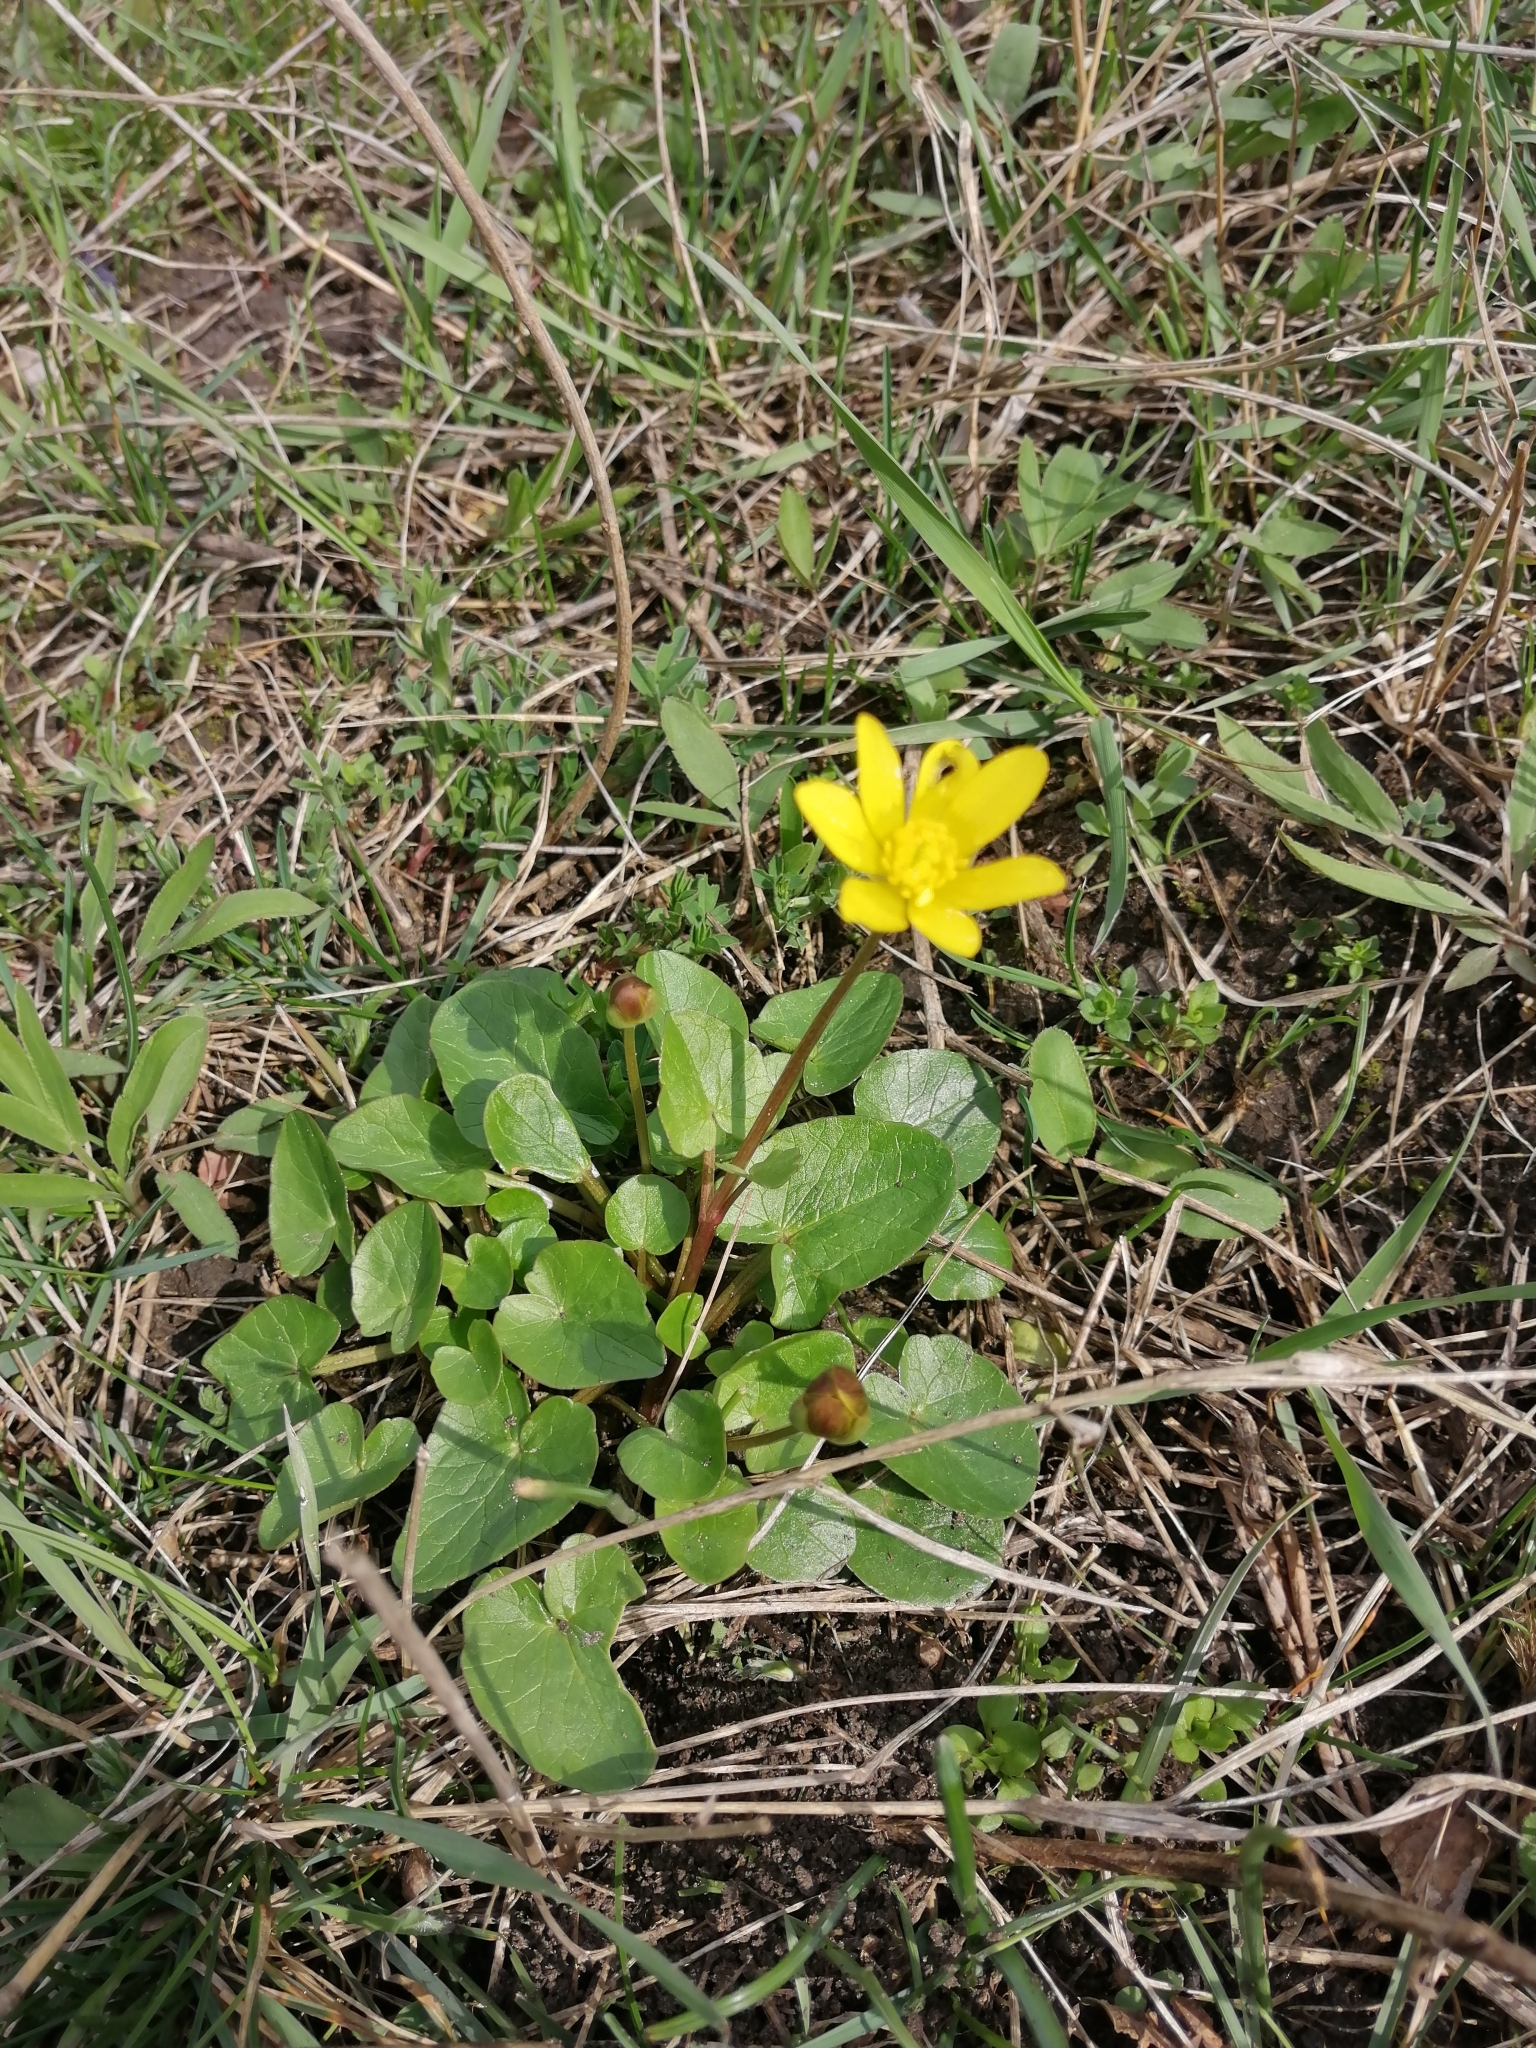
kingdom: Plantae
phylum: Tracheophyta
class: Magnoliopsida
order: Ranunculales
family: Ranunculaceae
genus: Ficaria
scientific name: Ficaria verna
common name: Lesser celandine
